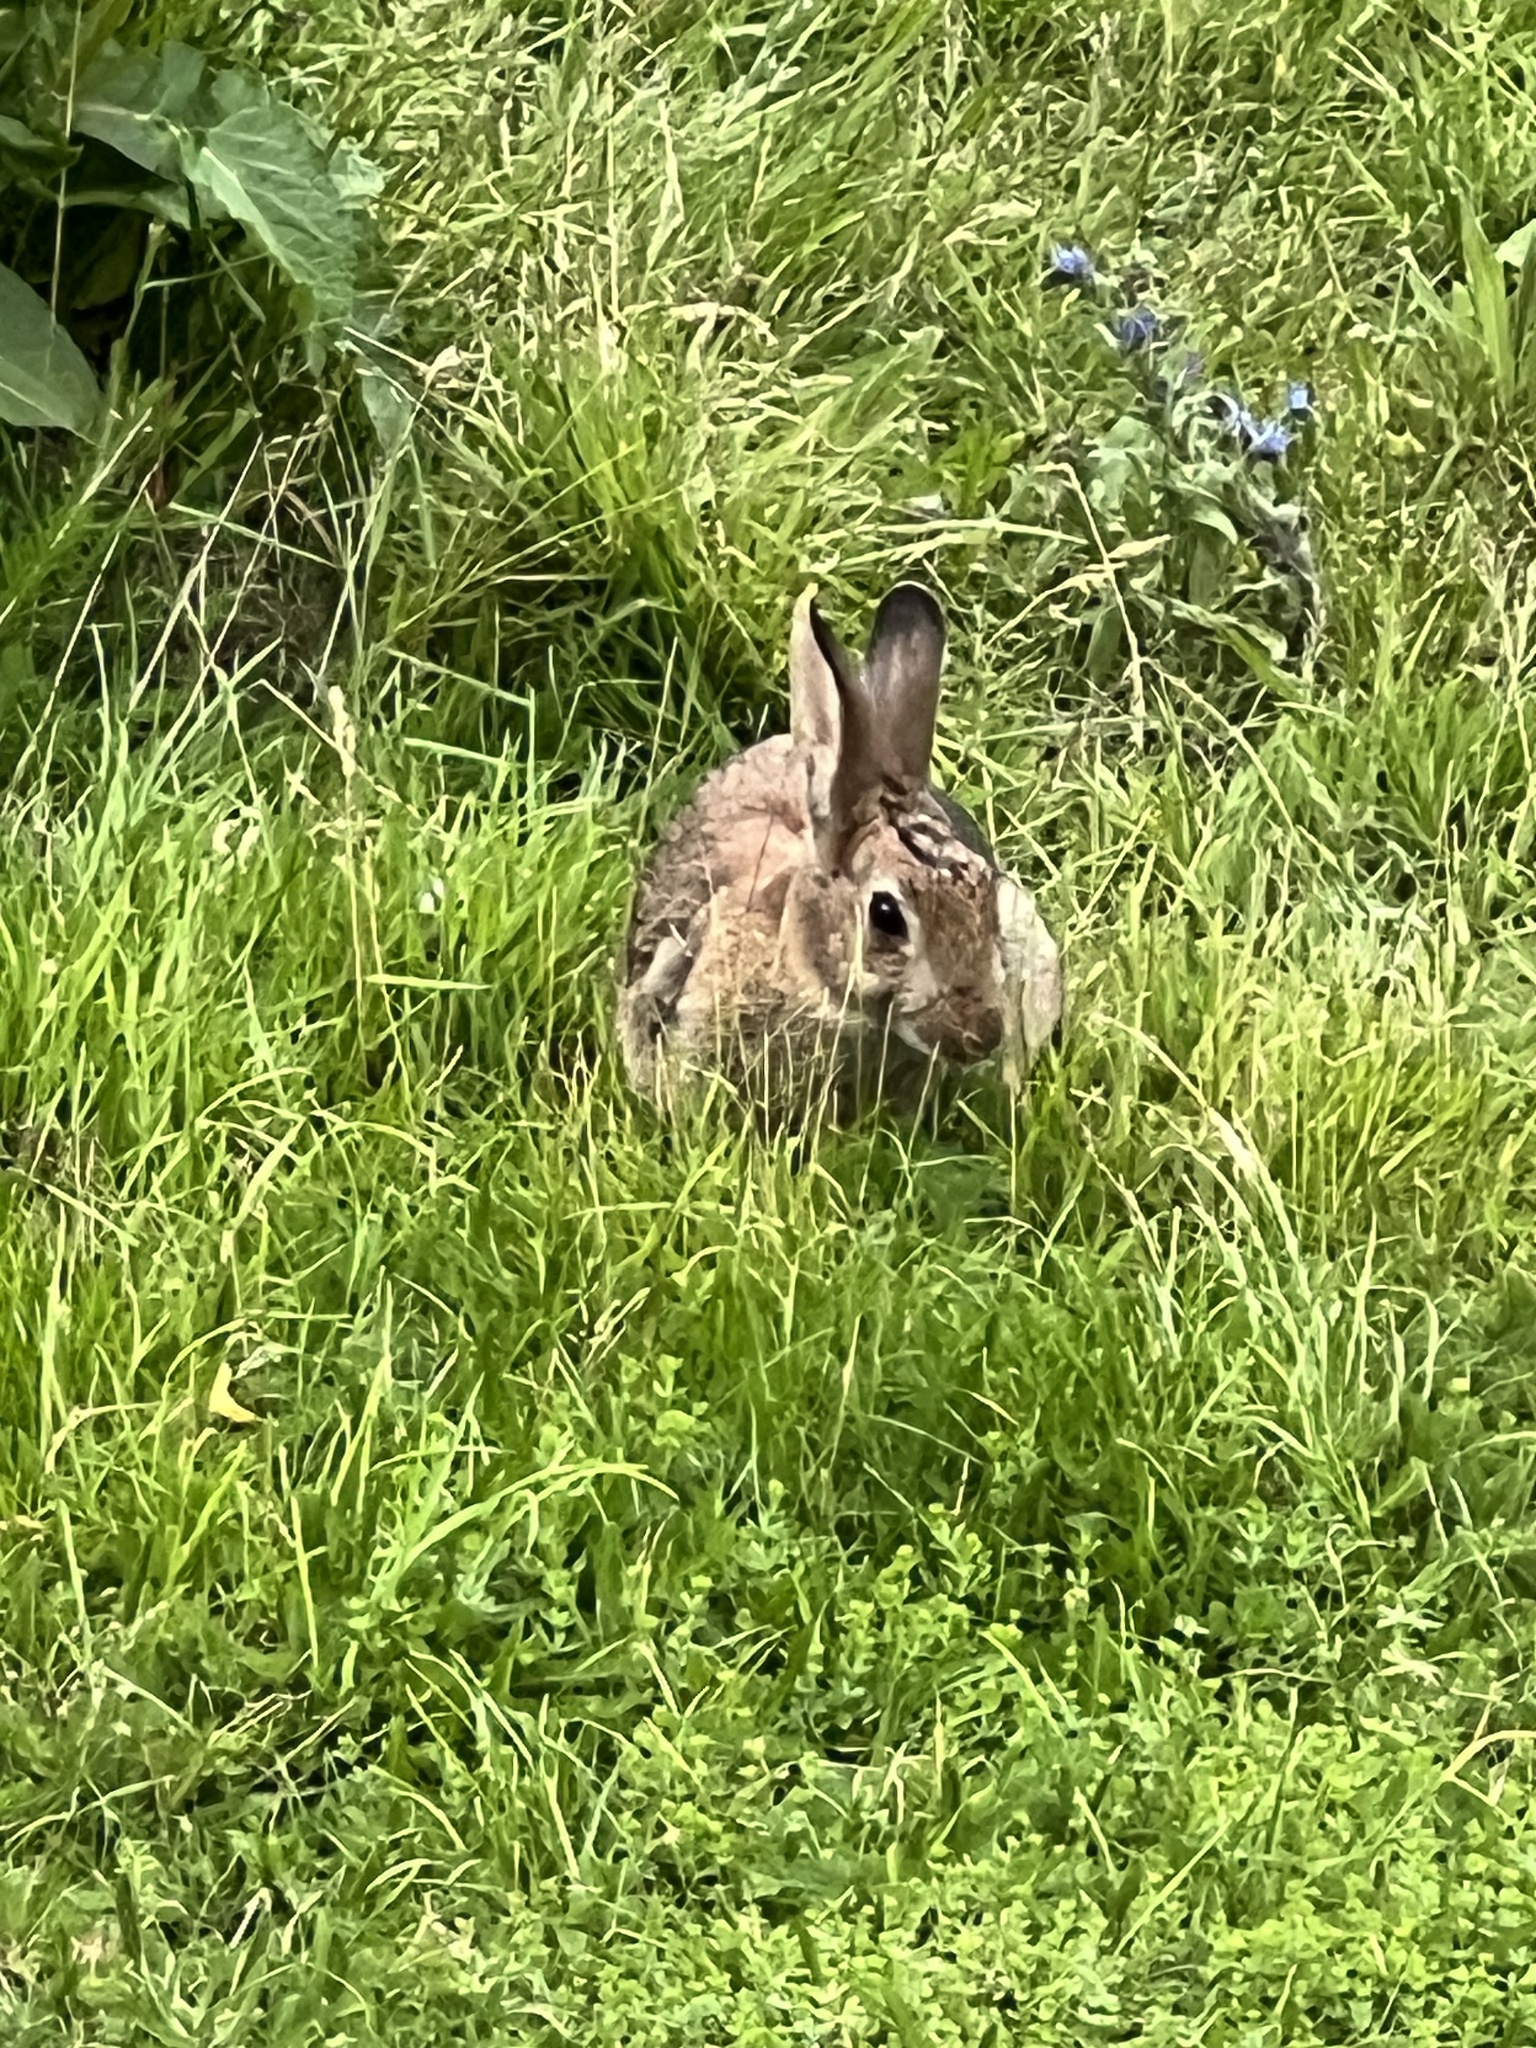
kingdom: Animalia
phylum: Chordata
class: Mammalia
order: Lagomorpha
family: Leporidae
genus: Oryctolagus
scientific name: Oryctolagus cuniculus
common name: European rabbit
